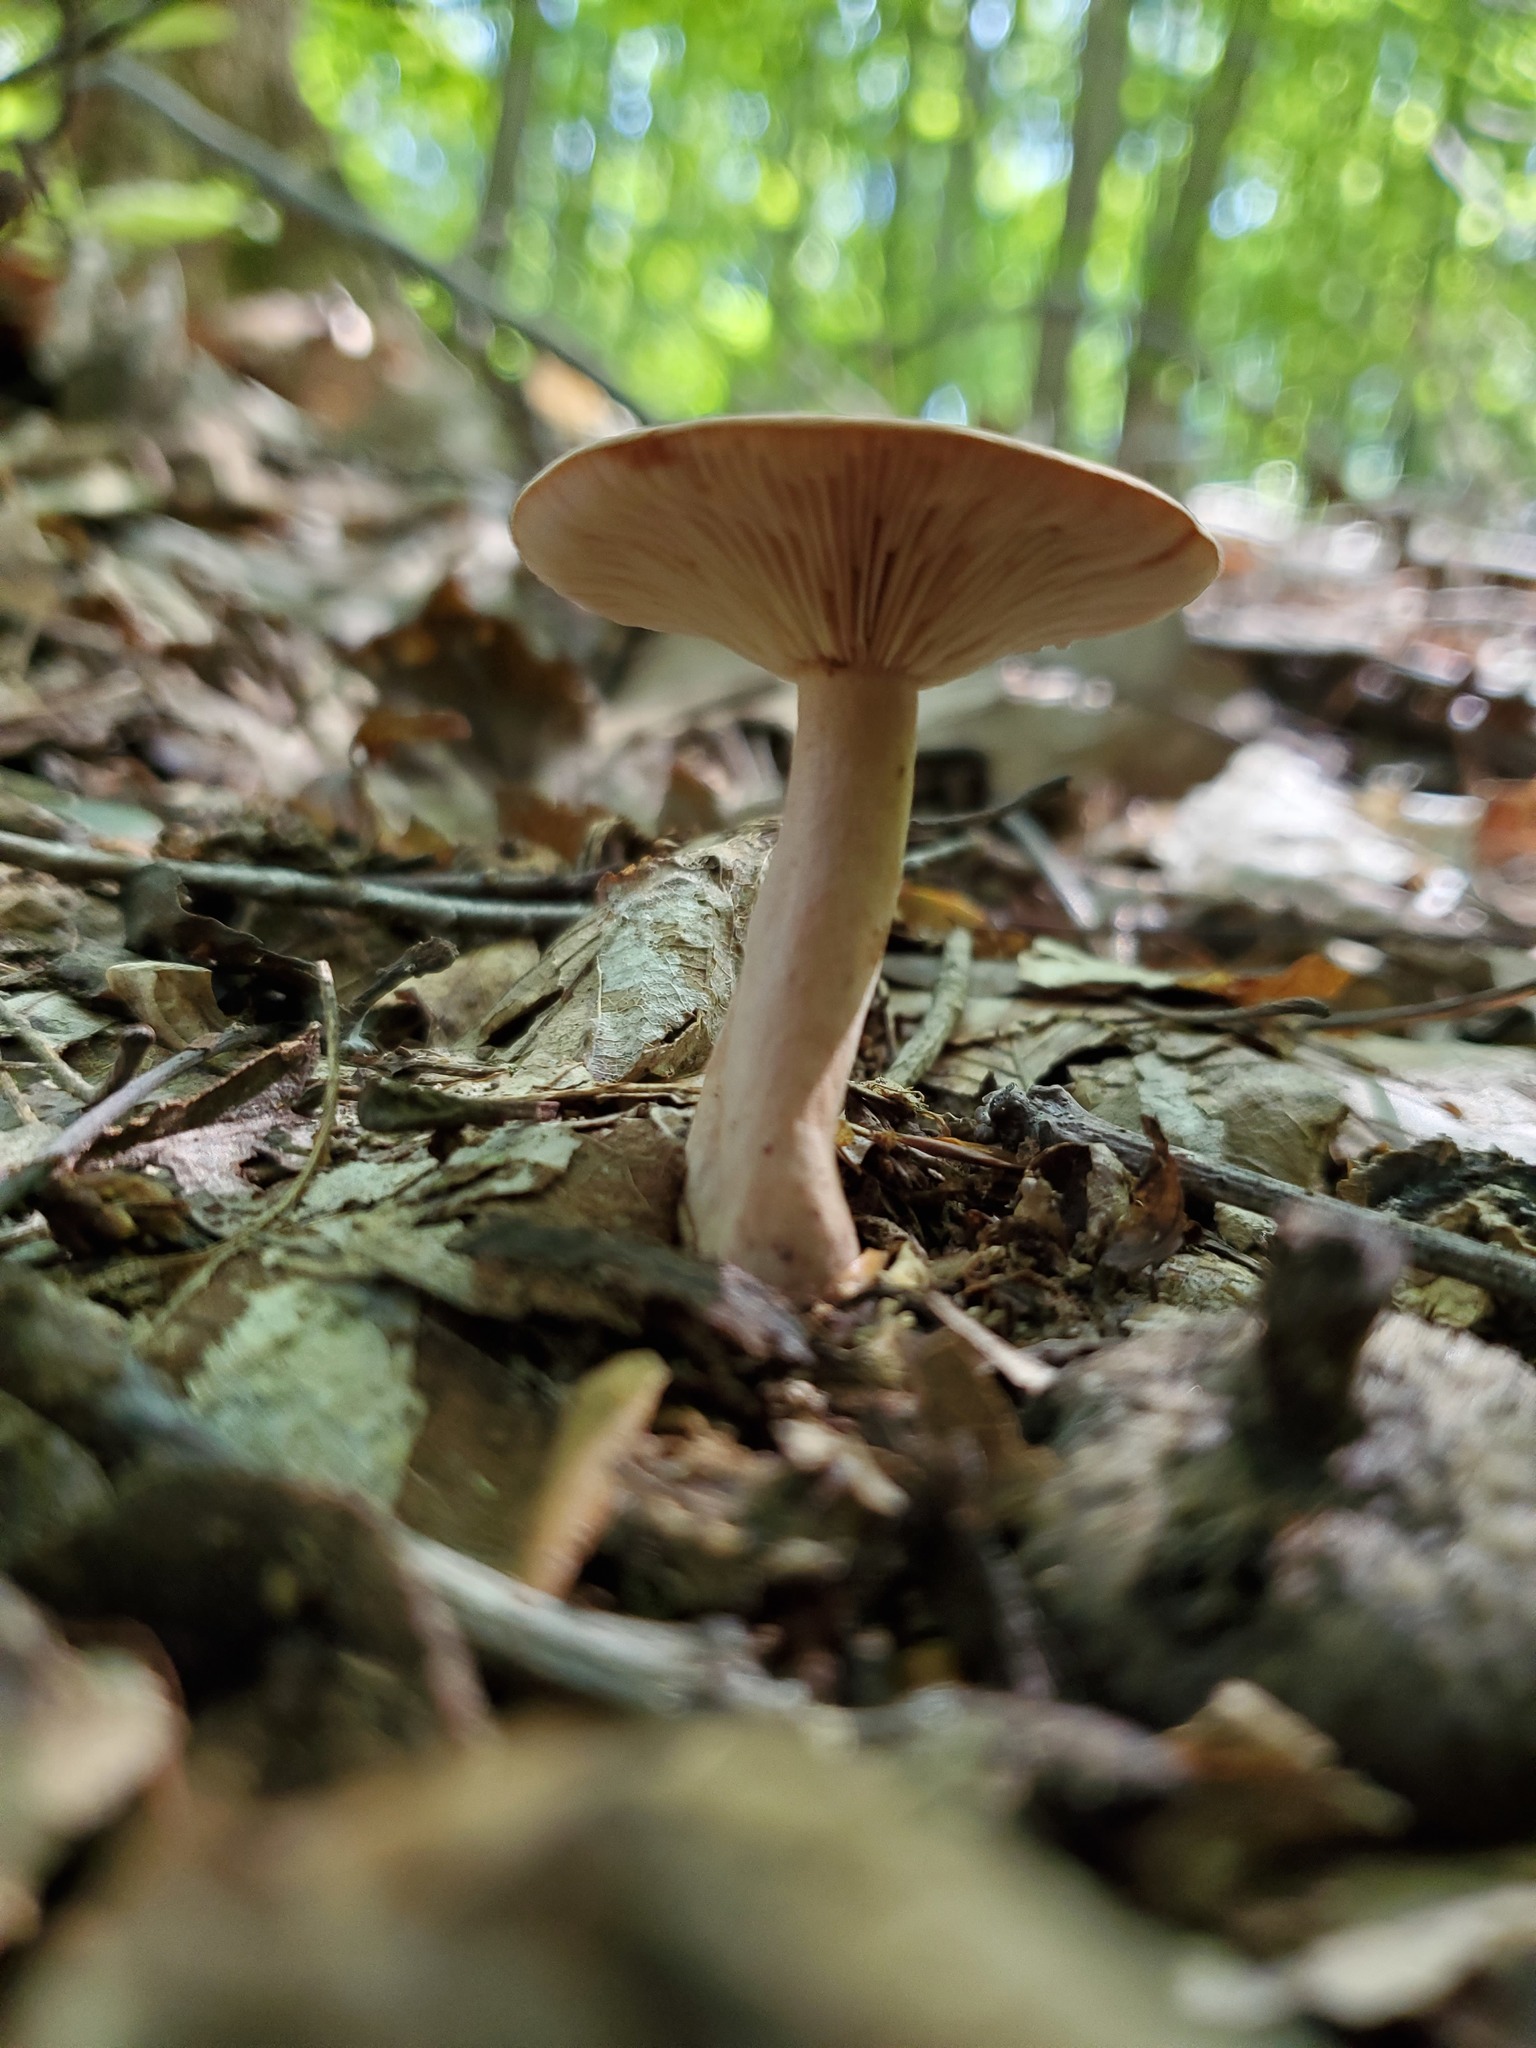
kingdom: Fungi
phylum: Basidiomycota
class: Agaricomycetes
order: Russulales
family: Russulaceae
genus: Lactarius
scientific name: Lactarius quietus
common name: Oak milk-cap
